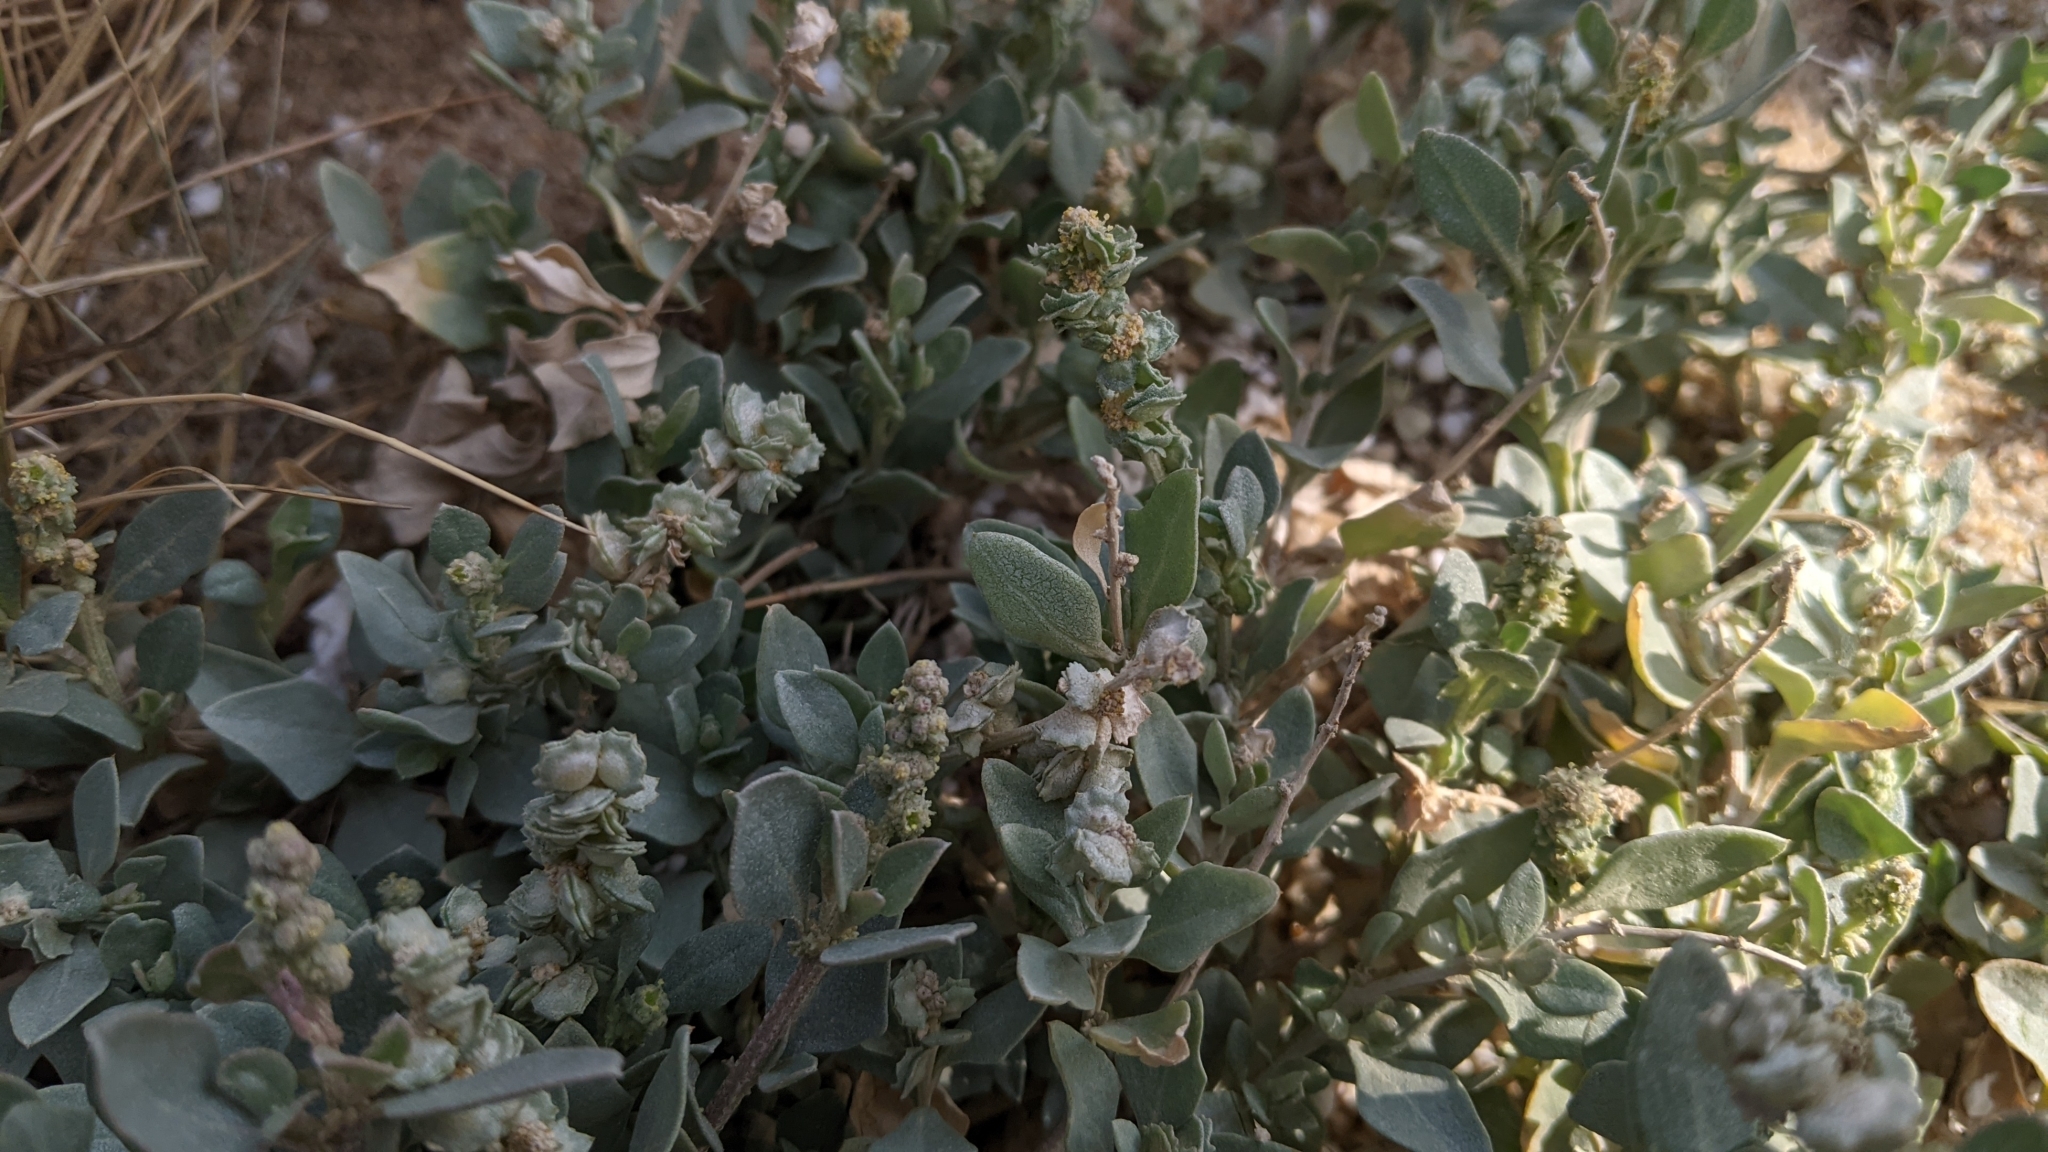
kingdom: Plantae
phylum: Tracheophyta
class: Magnoliopsida
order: Caryophyllales
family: Amaranthaceae
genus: Atriplex
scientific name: Atriplex maximowicziana
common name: Maximowicz's saltbush
